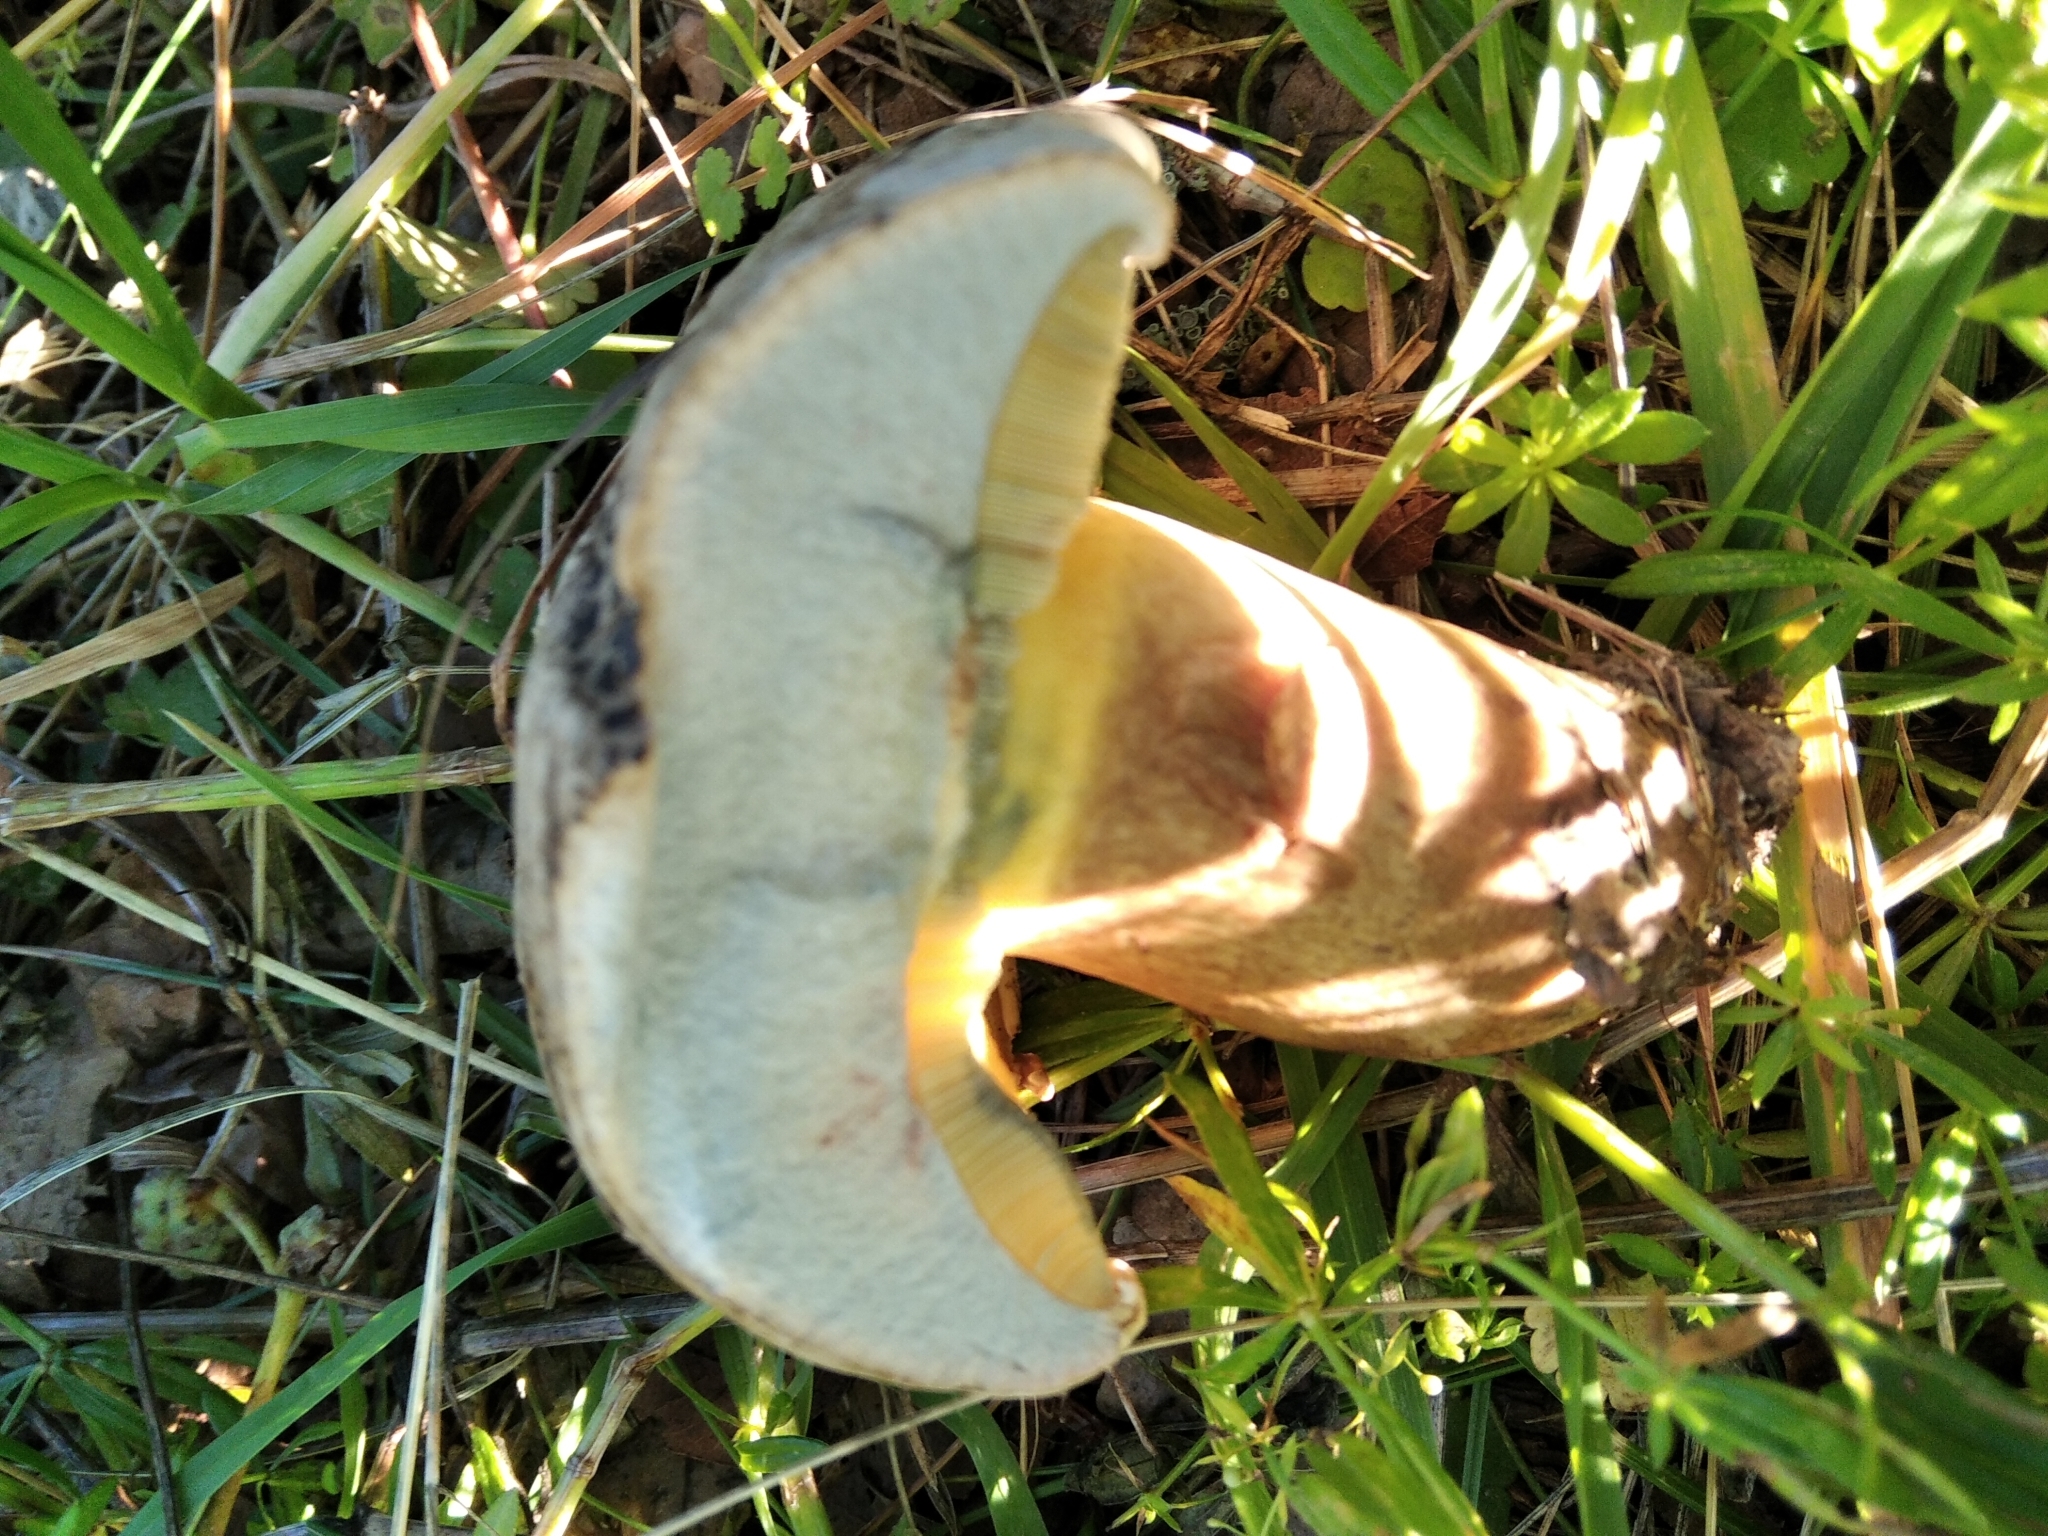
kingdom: Fungi
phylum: Basidiomycota
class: Agaricomycetes
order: Boletales
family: Boletaceae
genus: Caloboletus
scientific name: Caloboletus radicans
